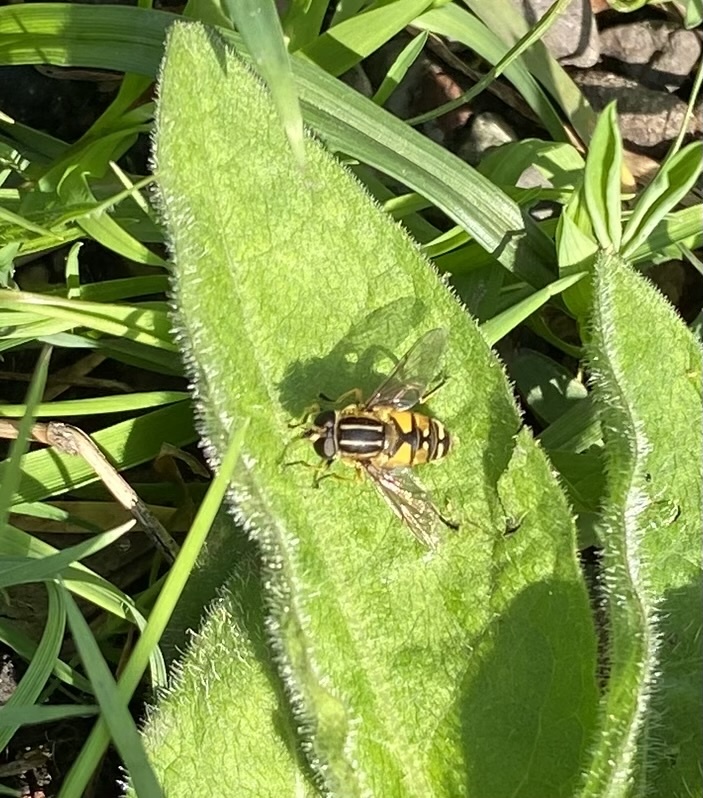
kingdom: Animalia
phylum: Arthropoda
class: Insecta
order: Diptera
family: Syrphidae
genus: Helophilus
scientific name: Helophilus pendulus
